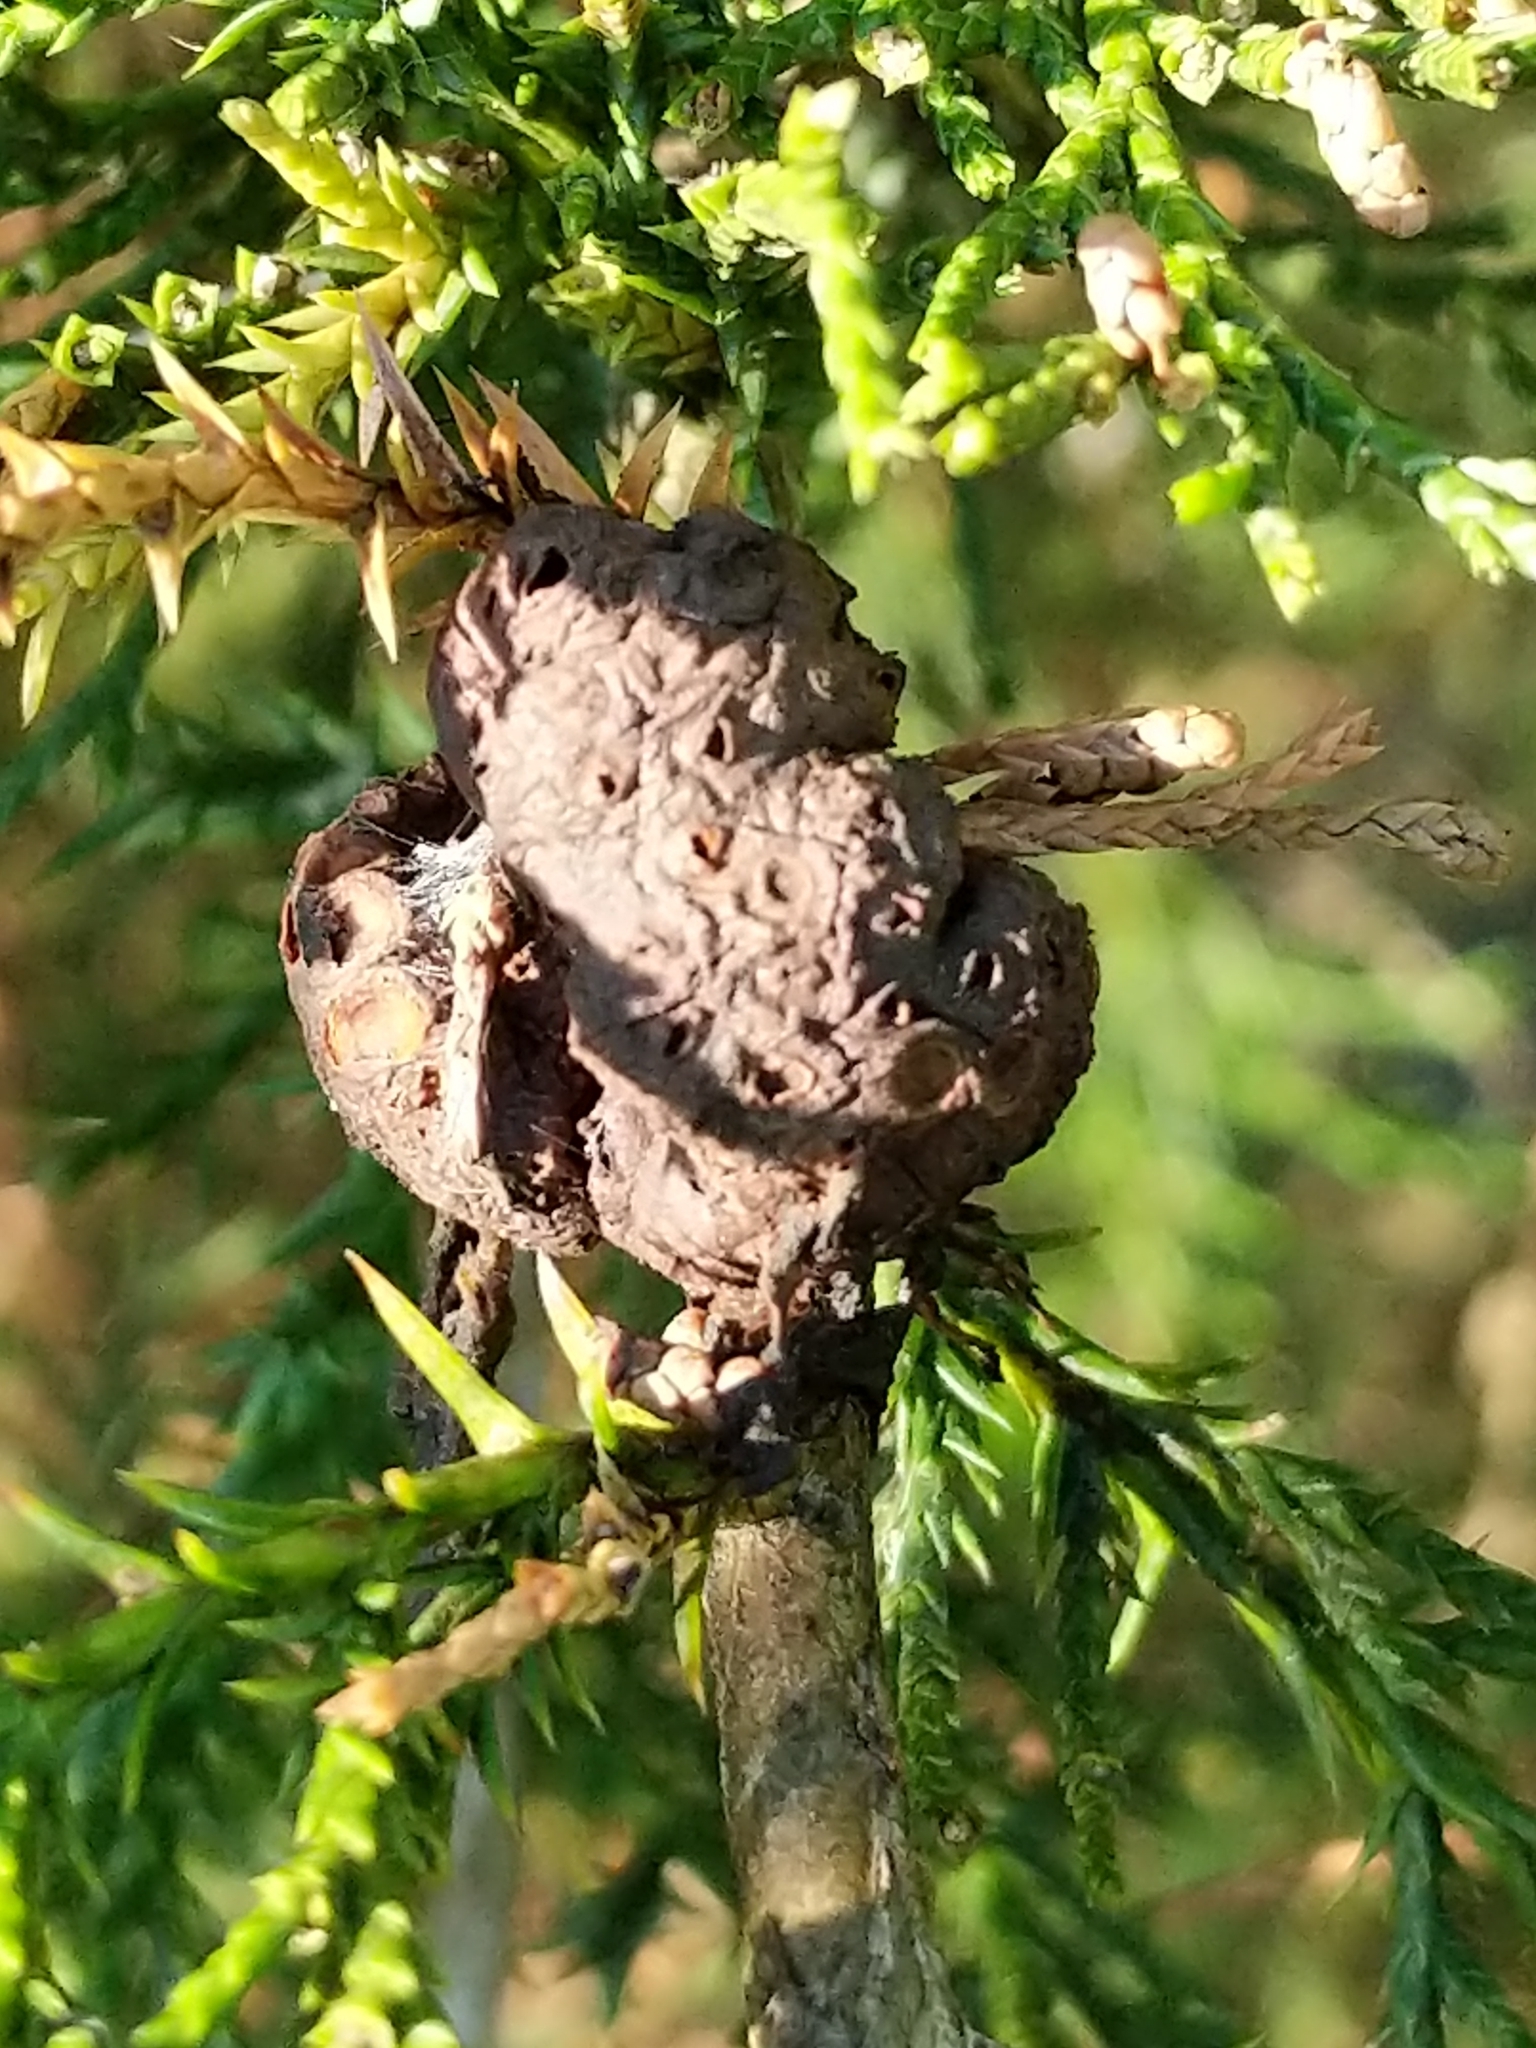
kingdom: Fungi
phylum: Basidiomycota
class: Pucciniomycetes
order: Pucciniales
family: Gymnosporangiaceae
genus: Gymnosporangium
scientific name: Gymnosporangium juniperi-virginianae
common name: Juniper-apple rust
